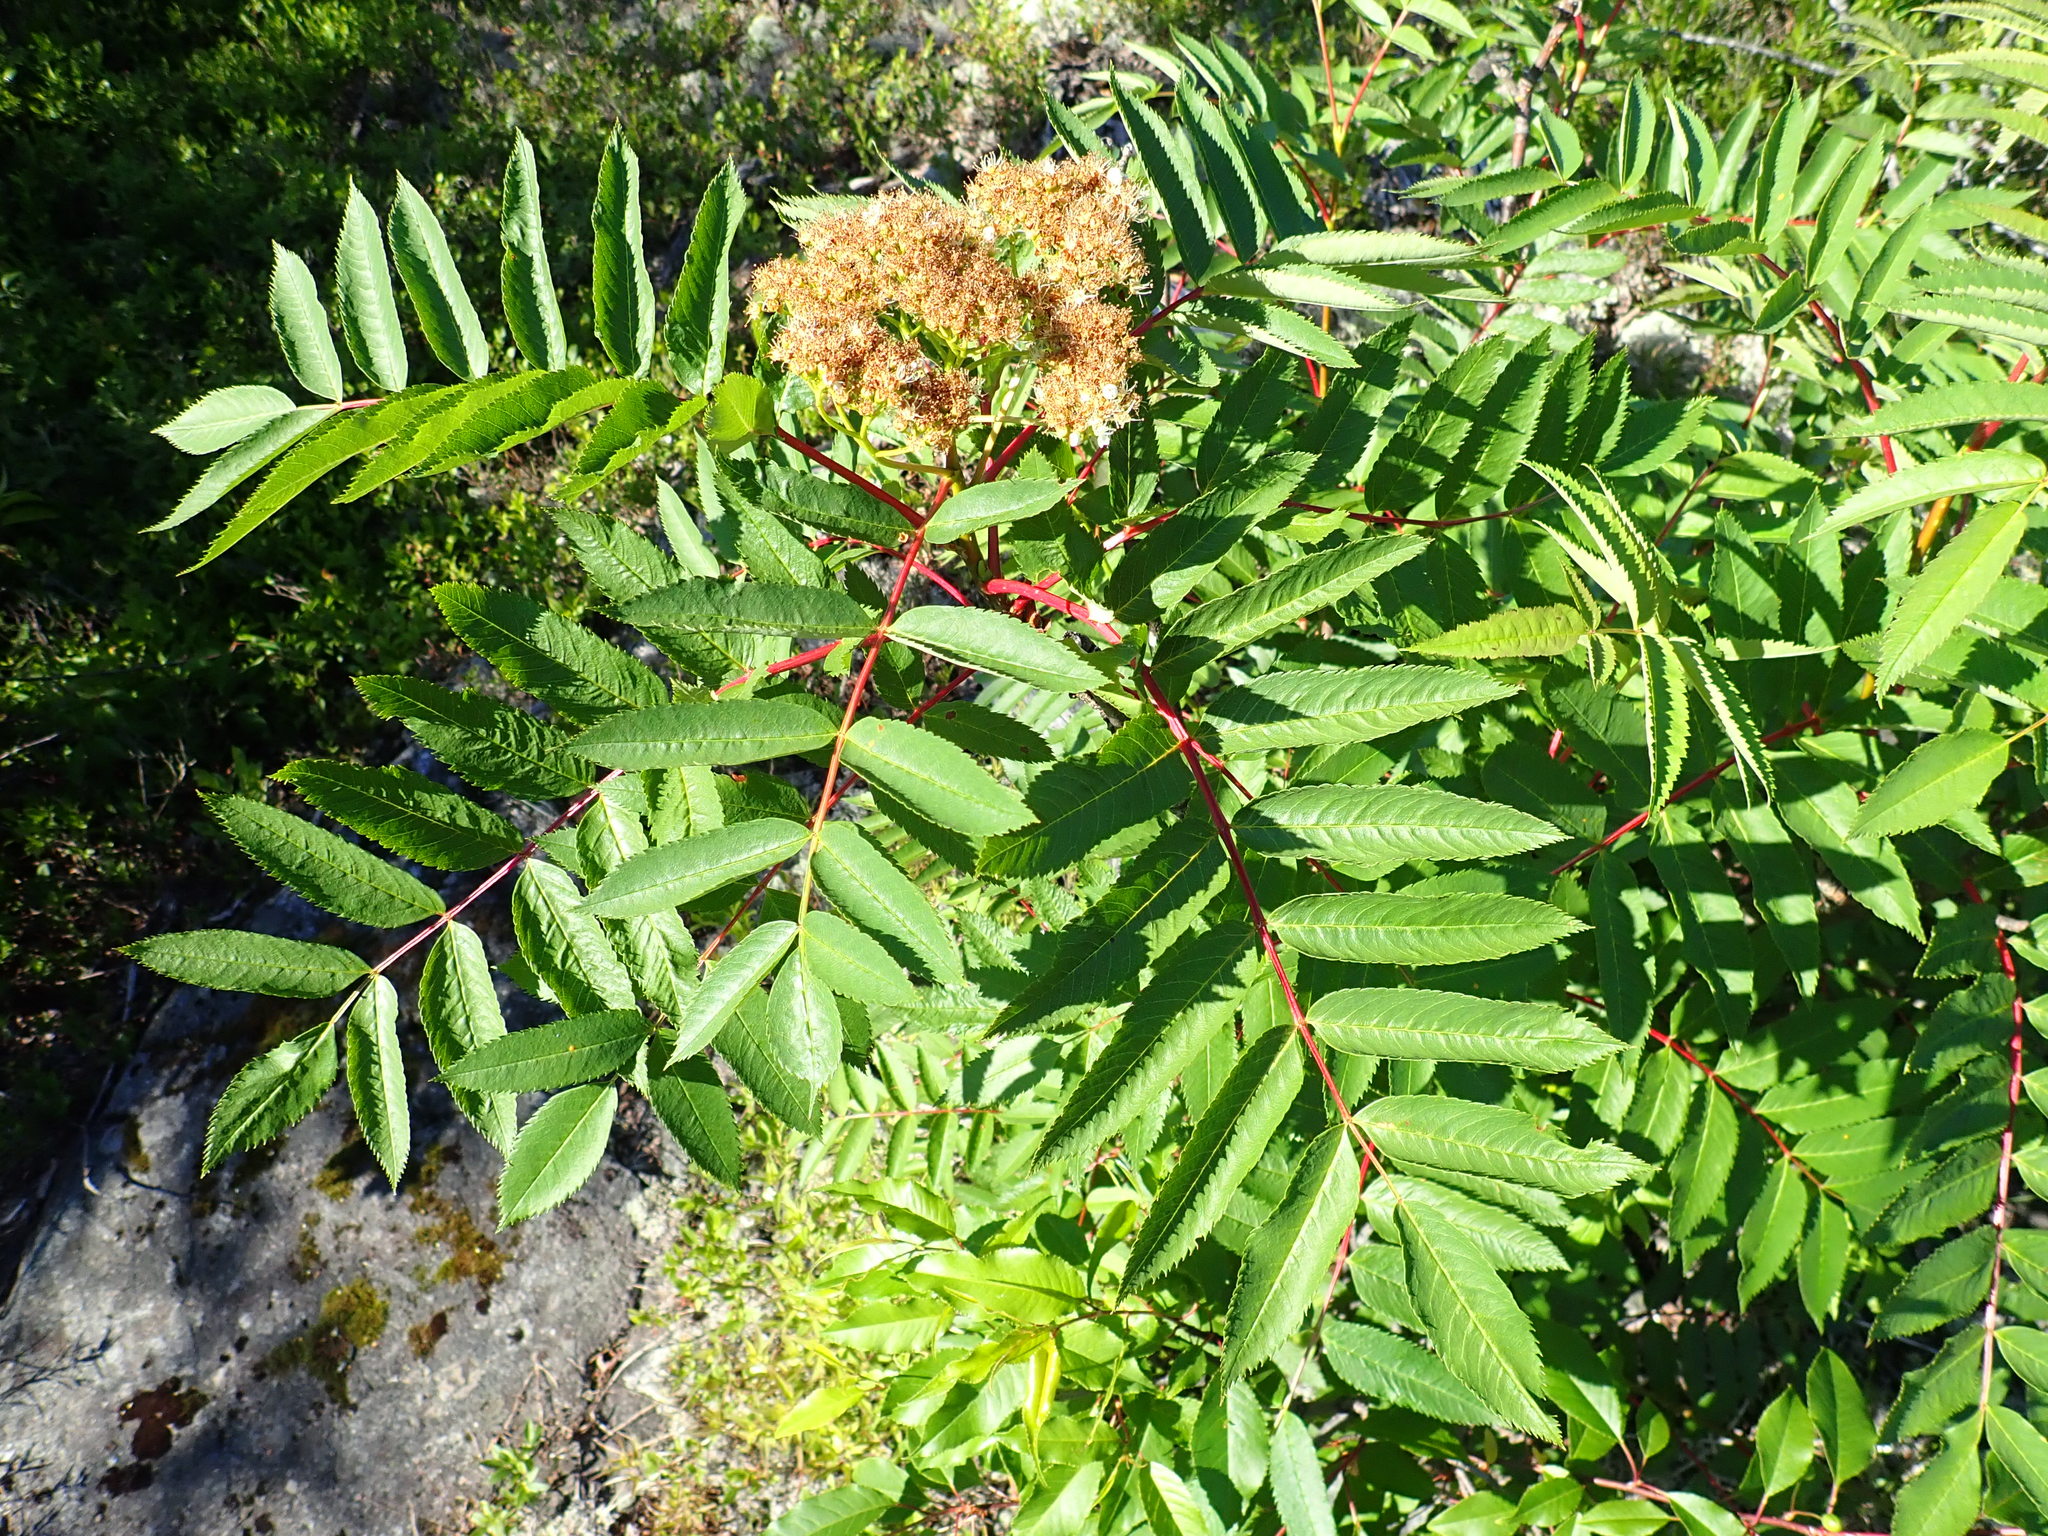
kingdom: Plantae
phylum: Tracheophyta
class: Magnoliopsida
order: Rosales
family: Rosaceae
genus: Sorbus
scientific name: Sorbus americana
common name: American mountain-ash
